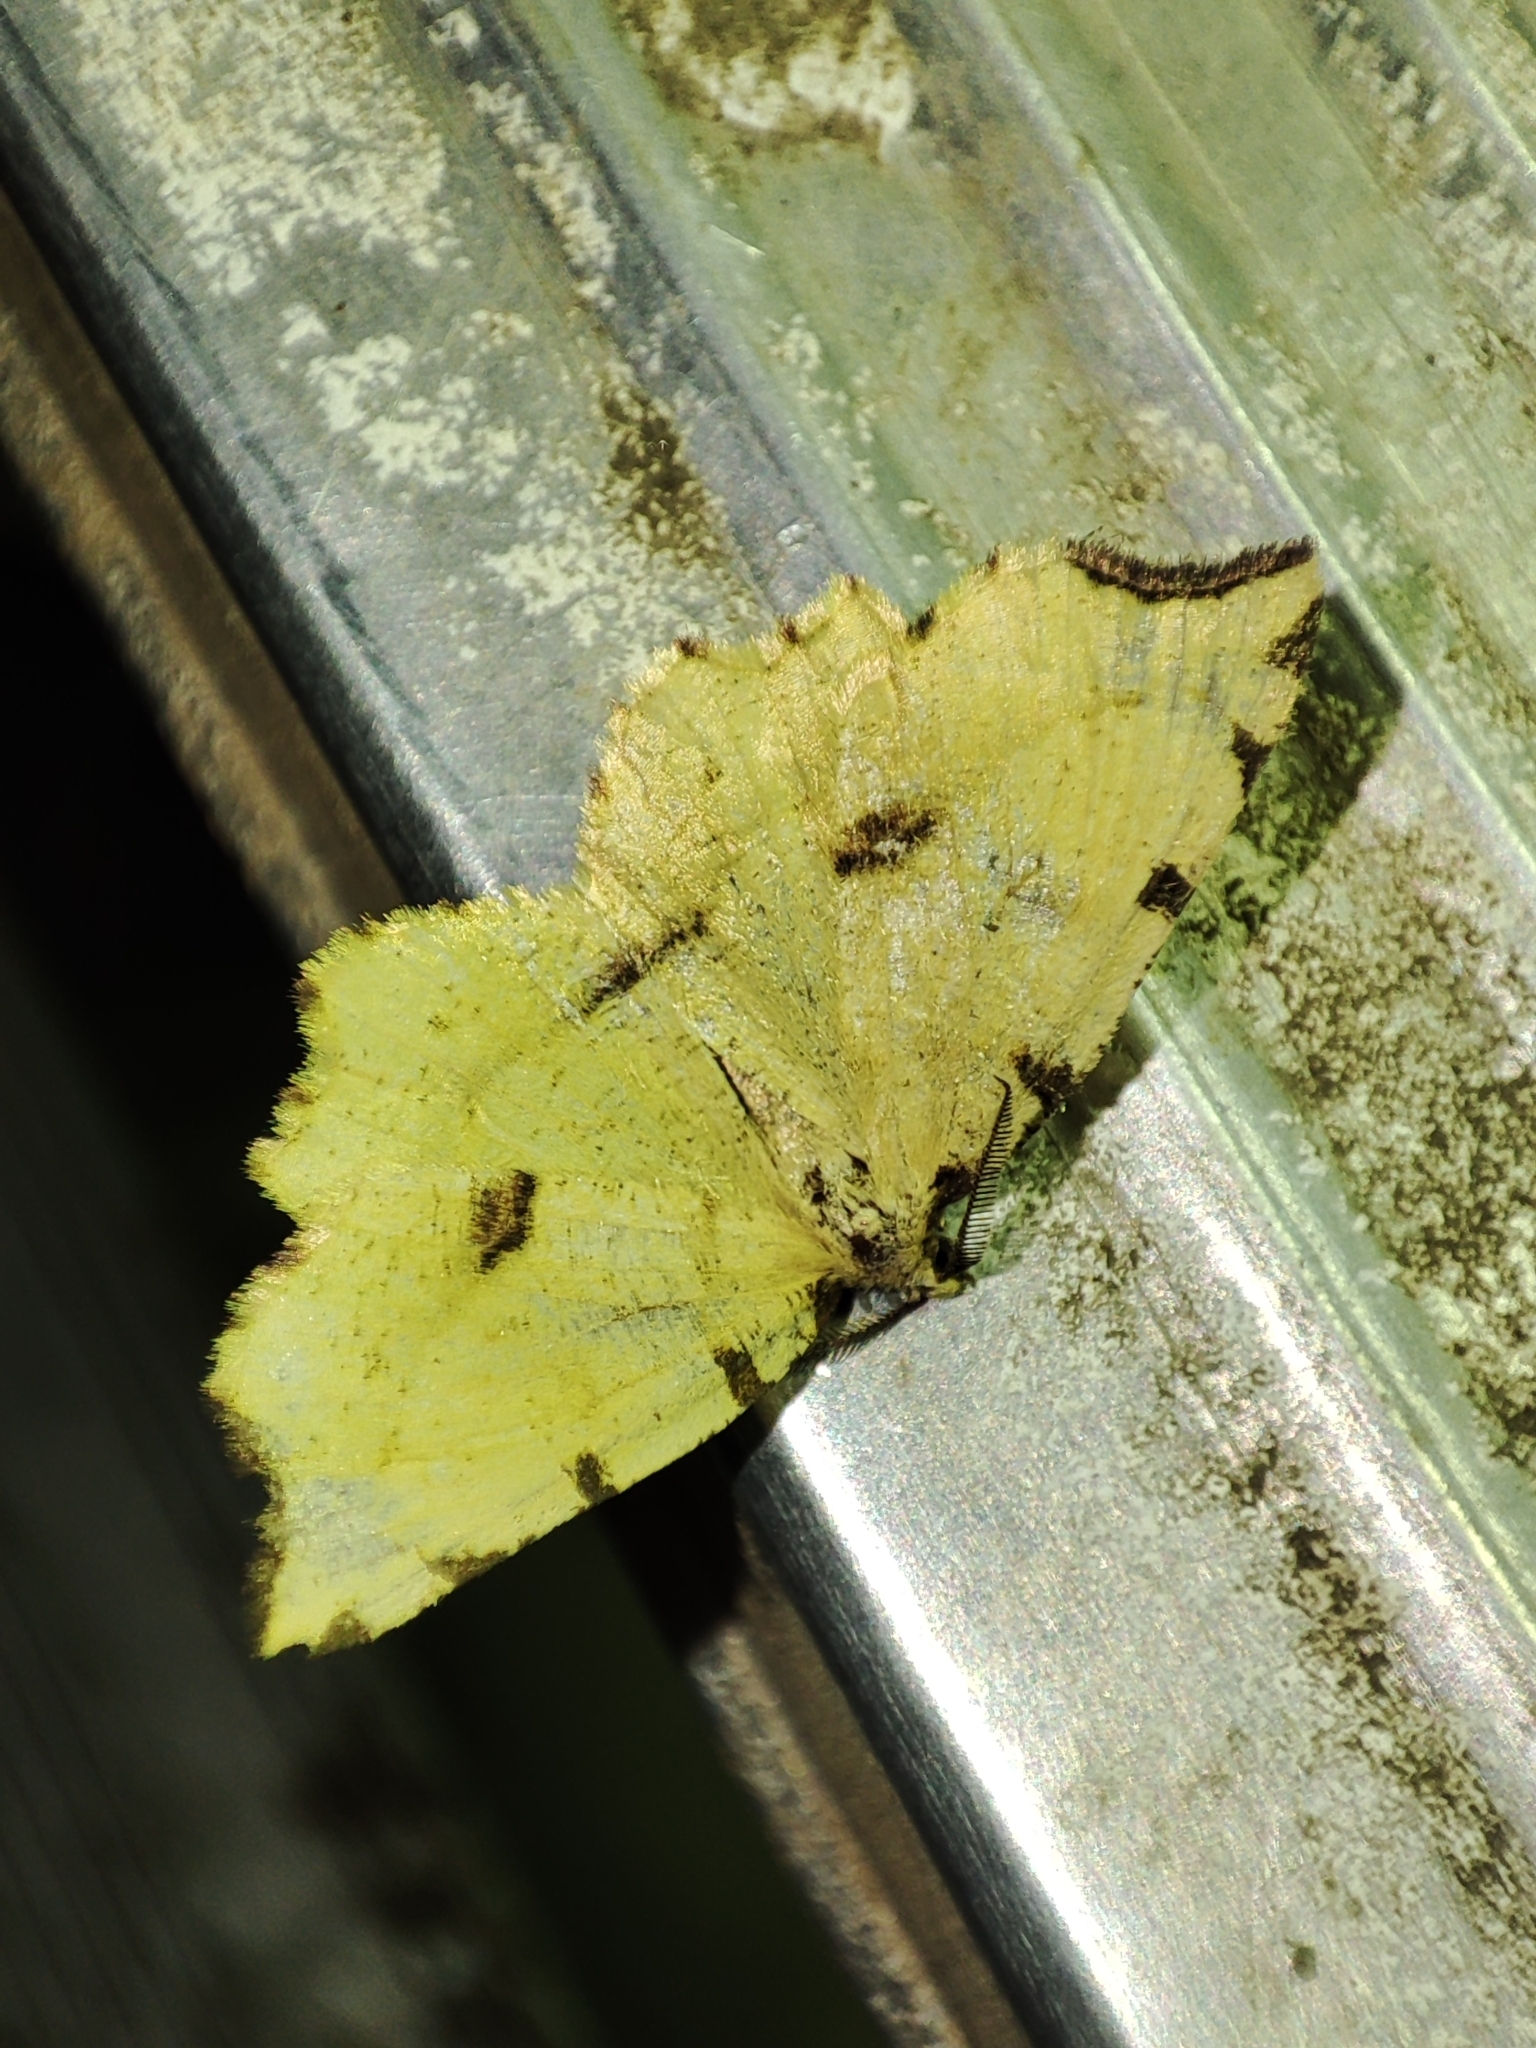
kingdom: Animalia
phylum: Arthropoda
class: Insecta
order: Lepidoptera
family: Geometridae
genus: Therapis
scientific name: Therapis flavicaria
